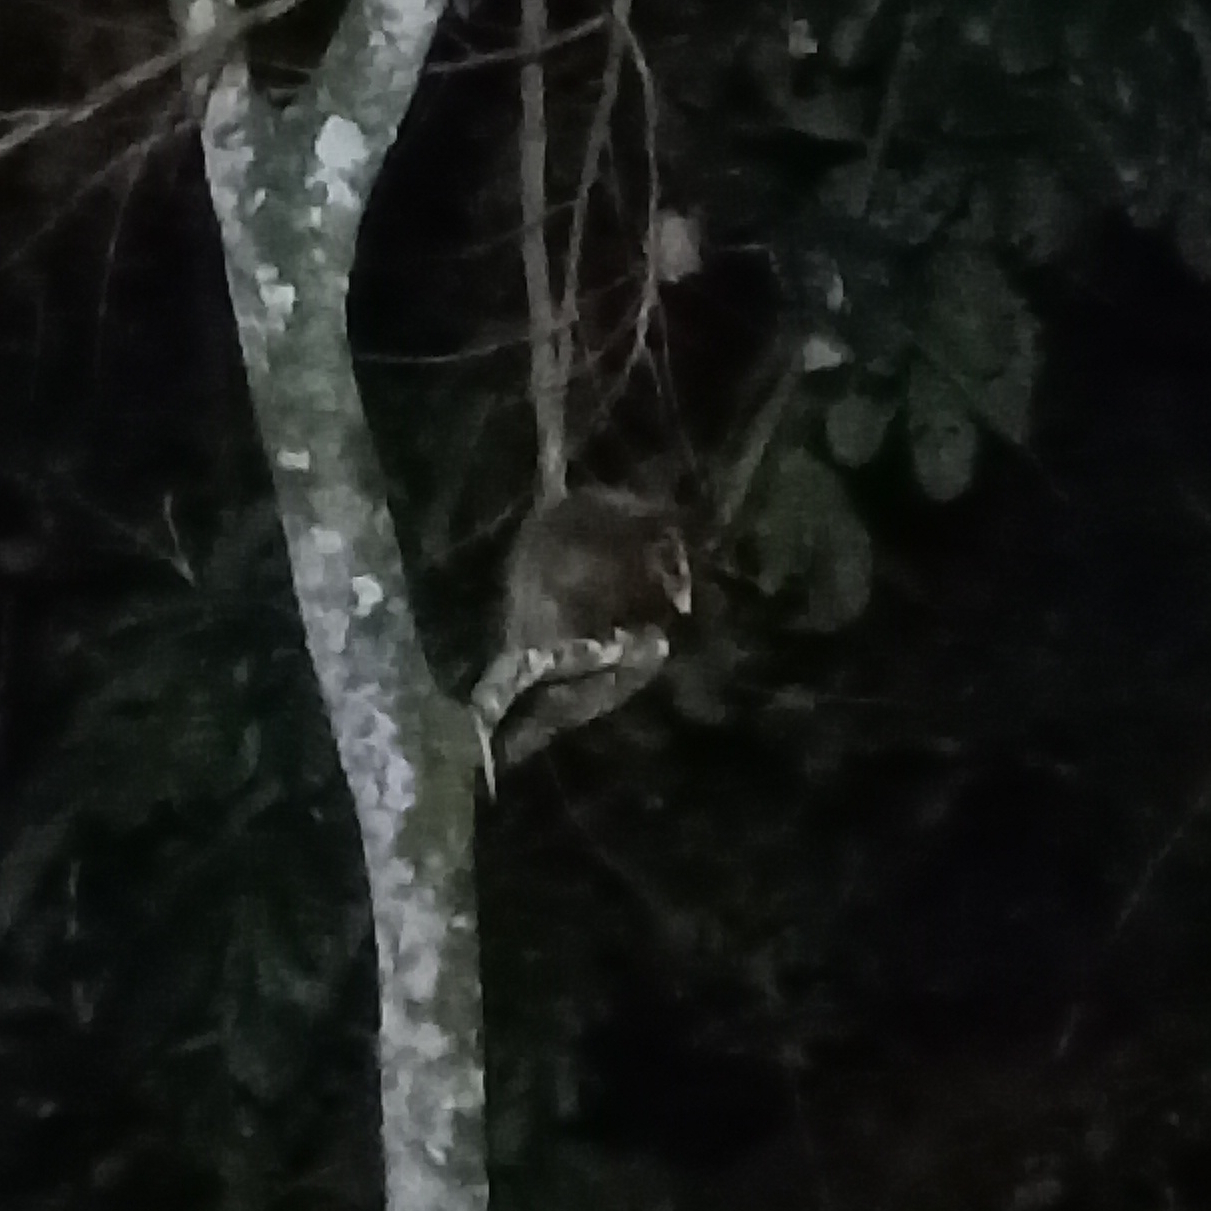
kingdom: Animalia
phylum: Chordata
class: Mammalia
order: Didelphimorphia
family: Didelphidae
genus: Didelphis
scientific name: Didelphis aurita
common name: Big-eared opossum
